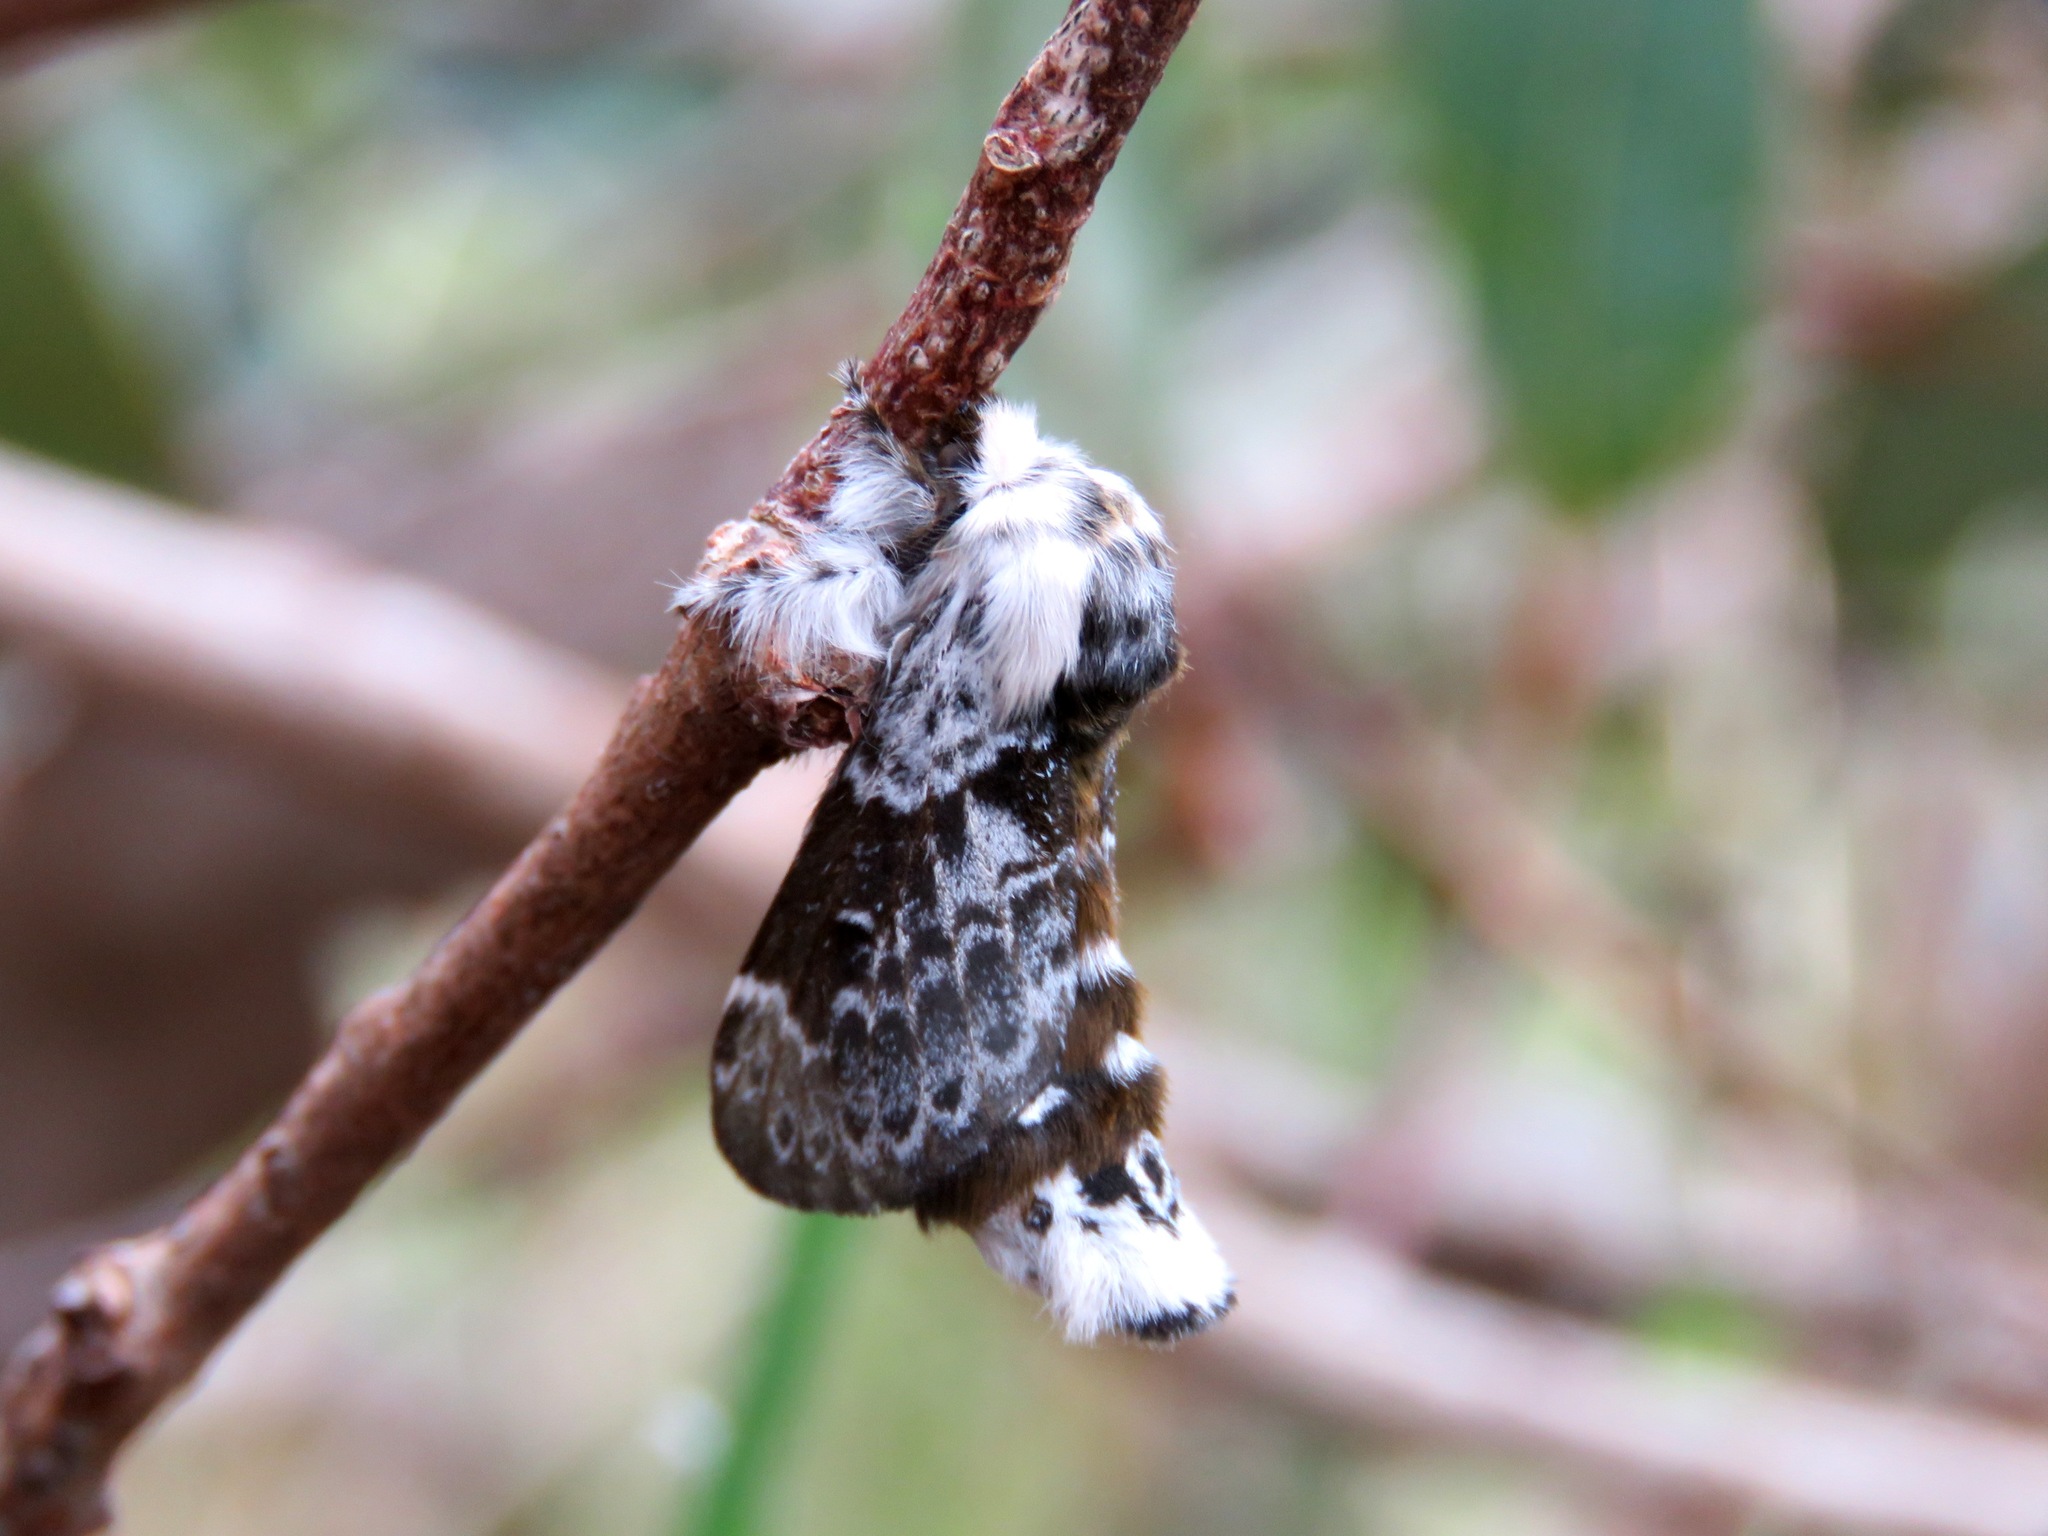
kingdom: Animalia
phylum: Arthropoda
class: Insecta
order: Lepidoptera
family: Lasiocampidae
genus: Genduara
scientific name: Genduara subnotata
